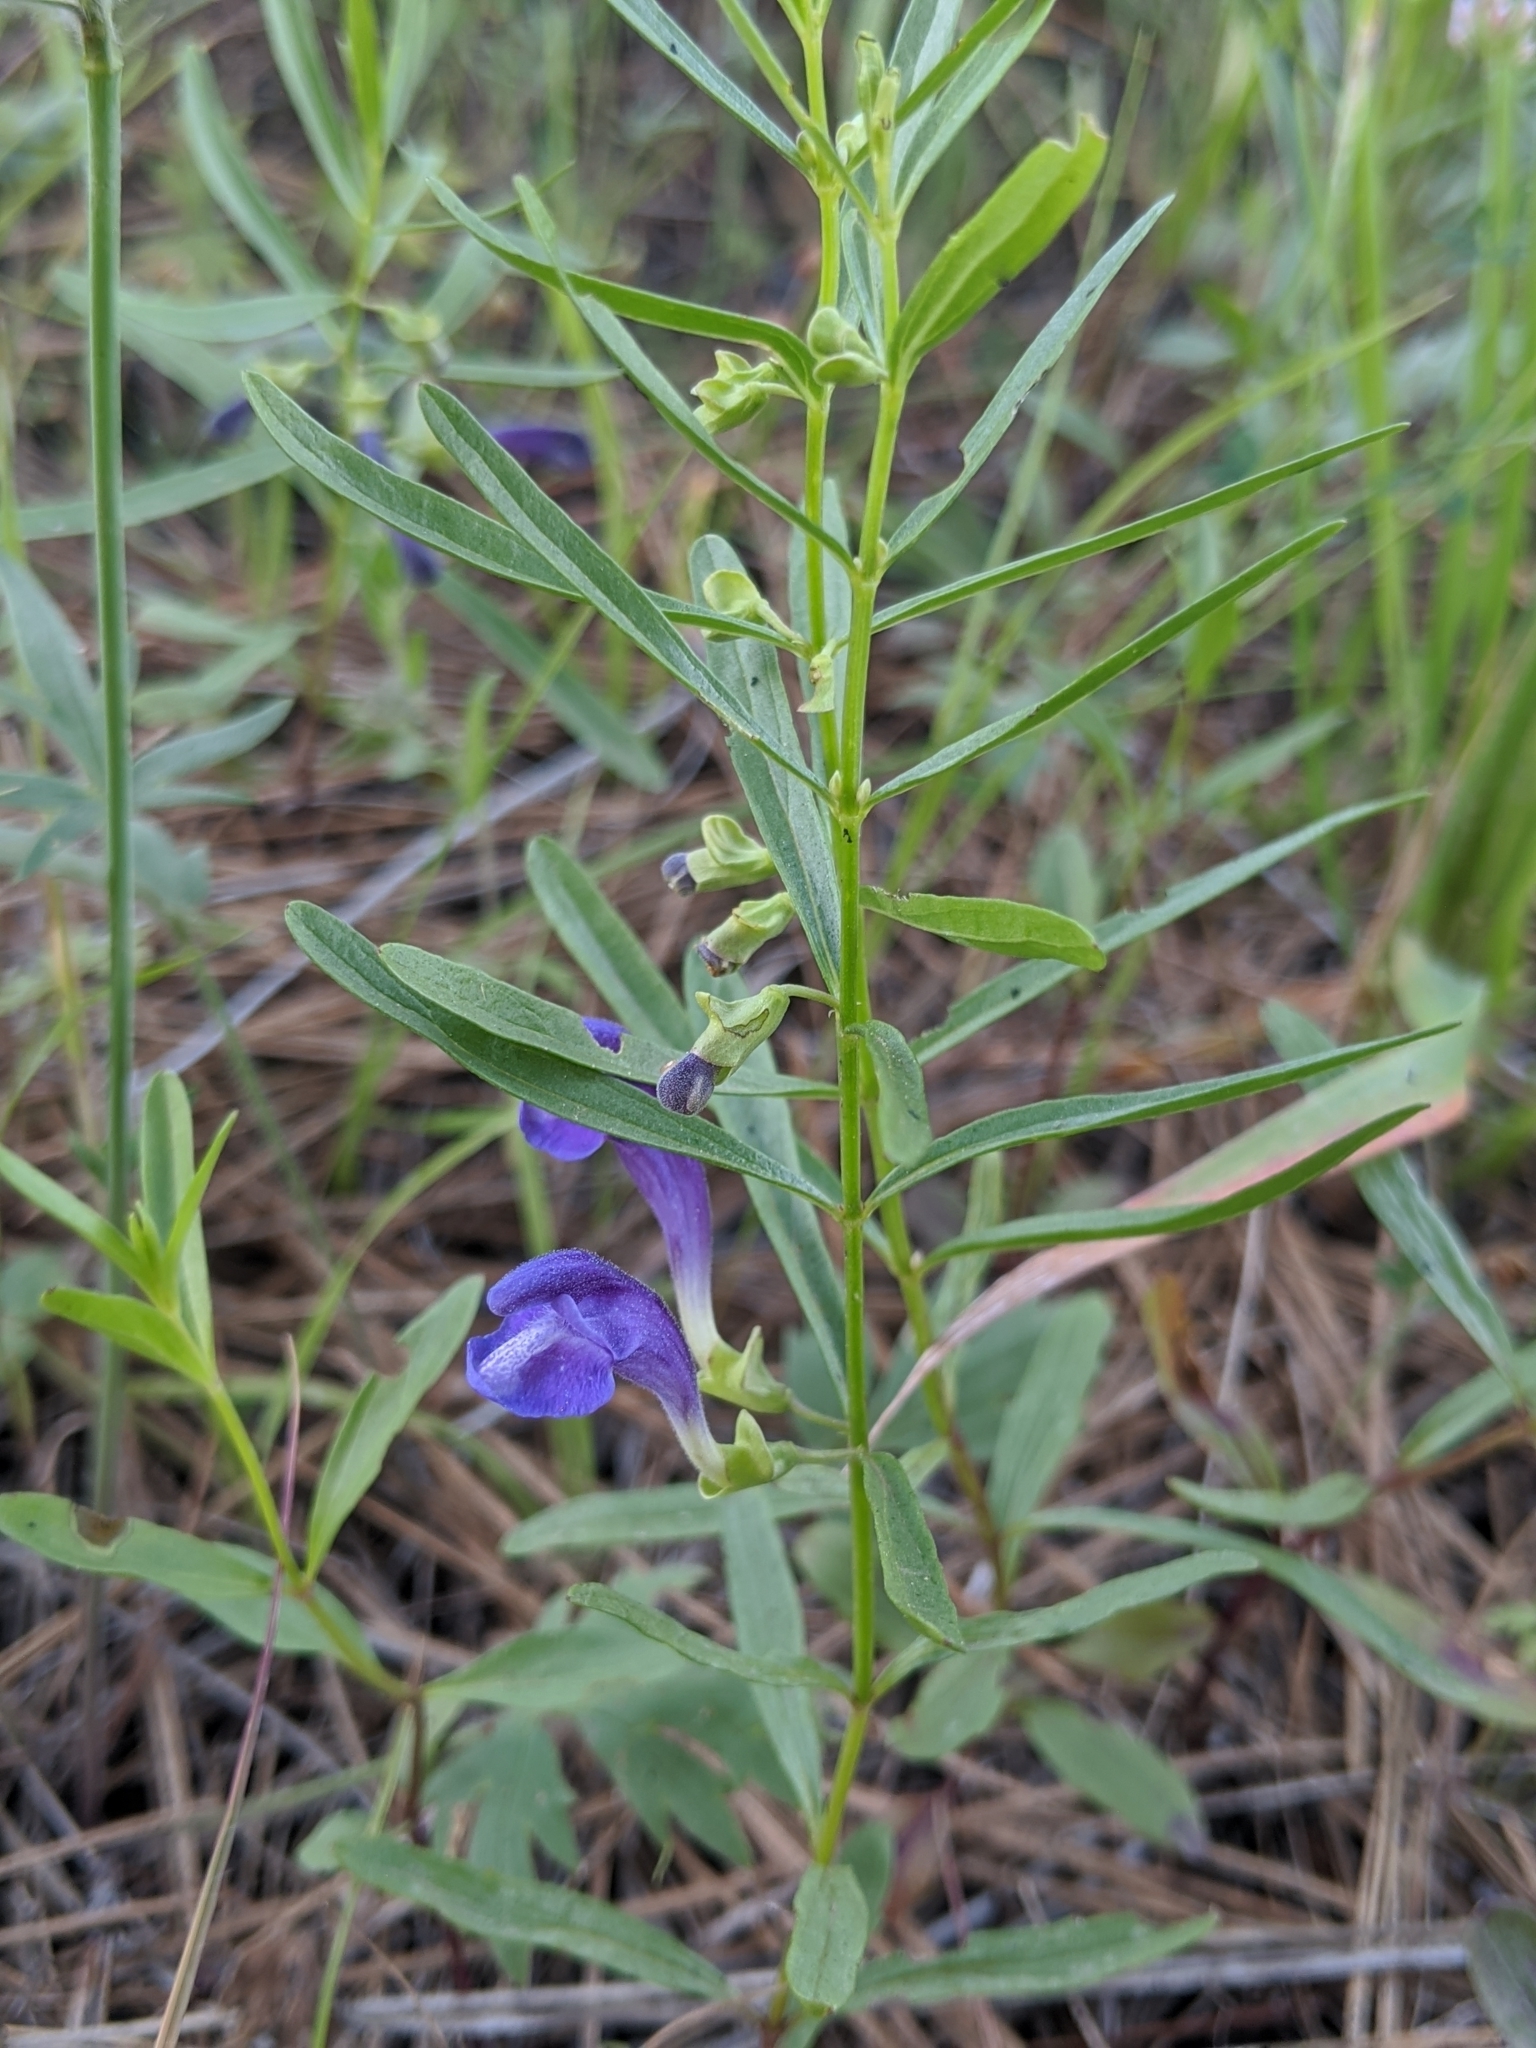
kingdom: Plantae
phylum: Tracheophyta
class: Magnoliopsida
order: Lamiales
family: Lamiaceae
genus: Scutellaria
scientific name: Scutellaria siphocampyloides
